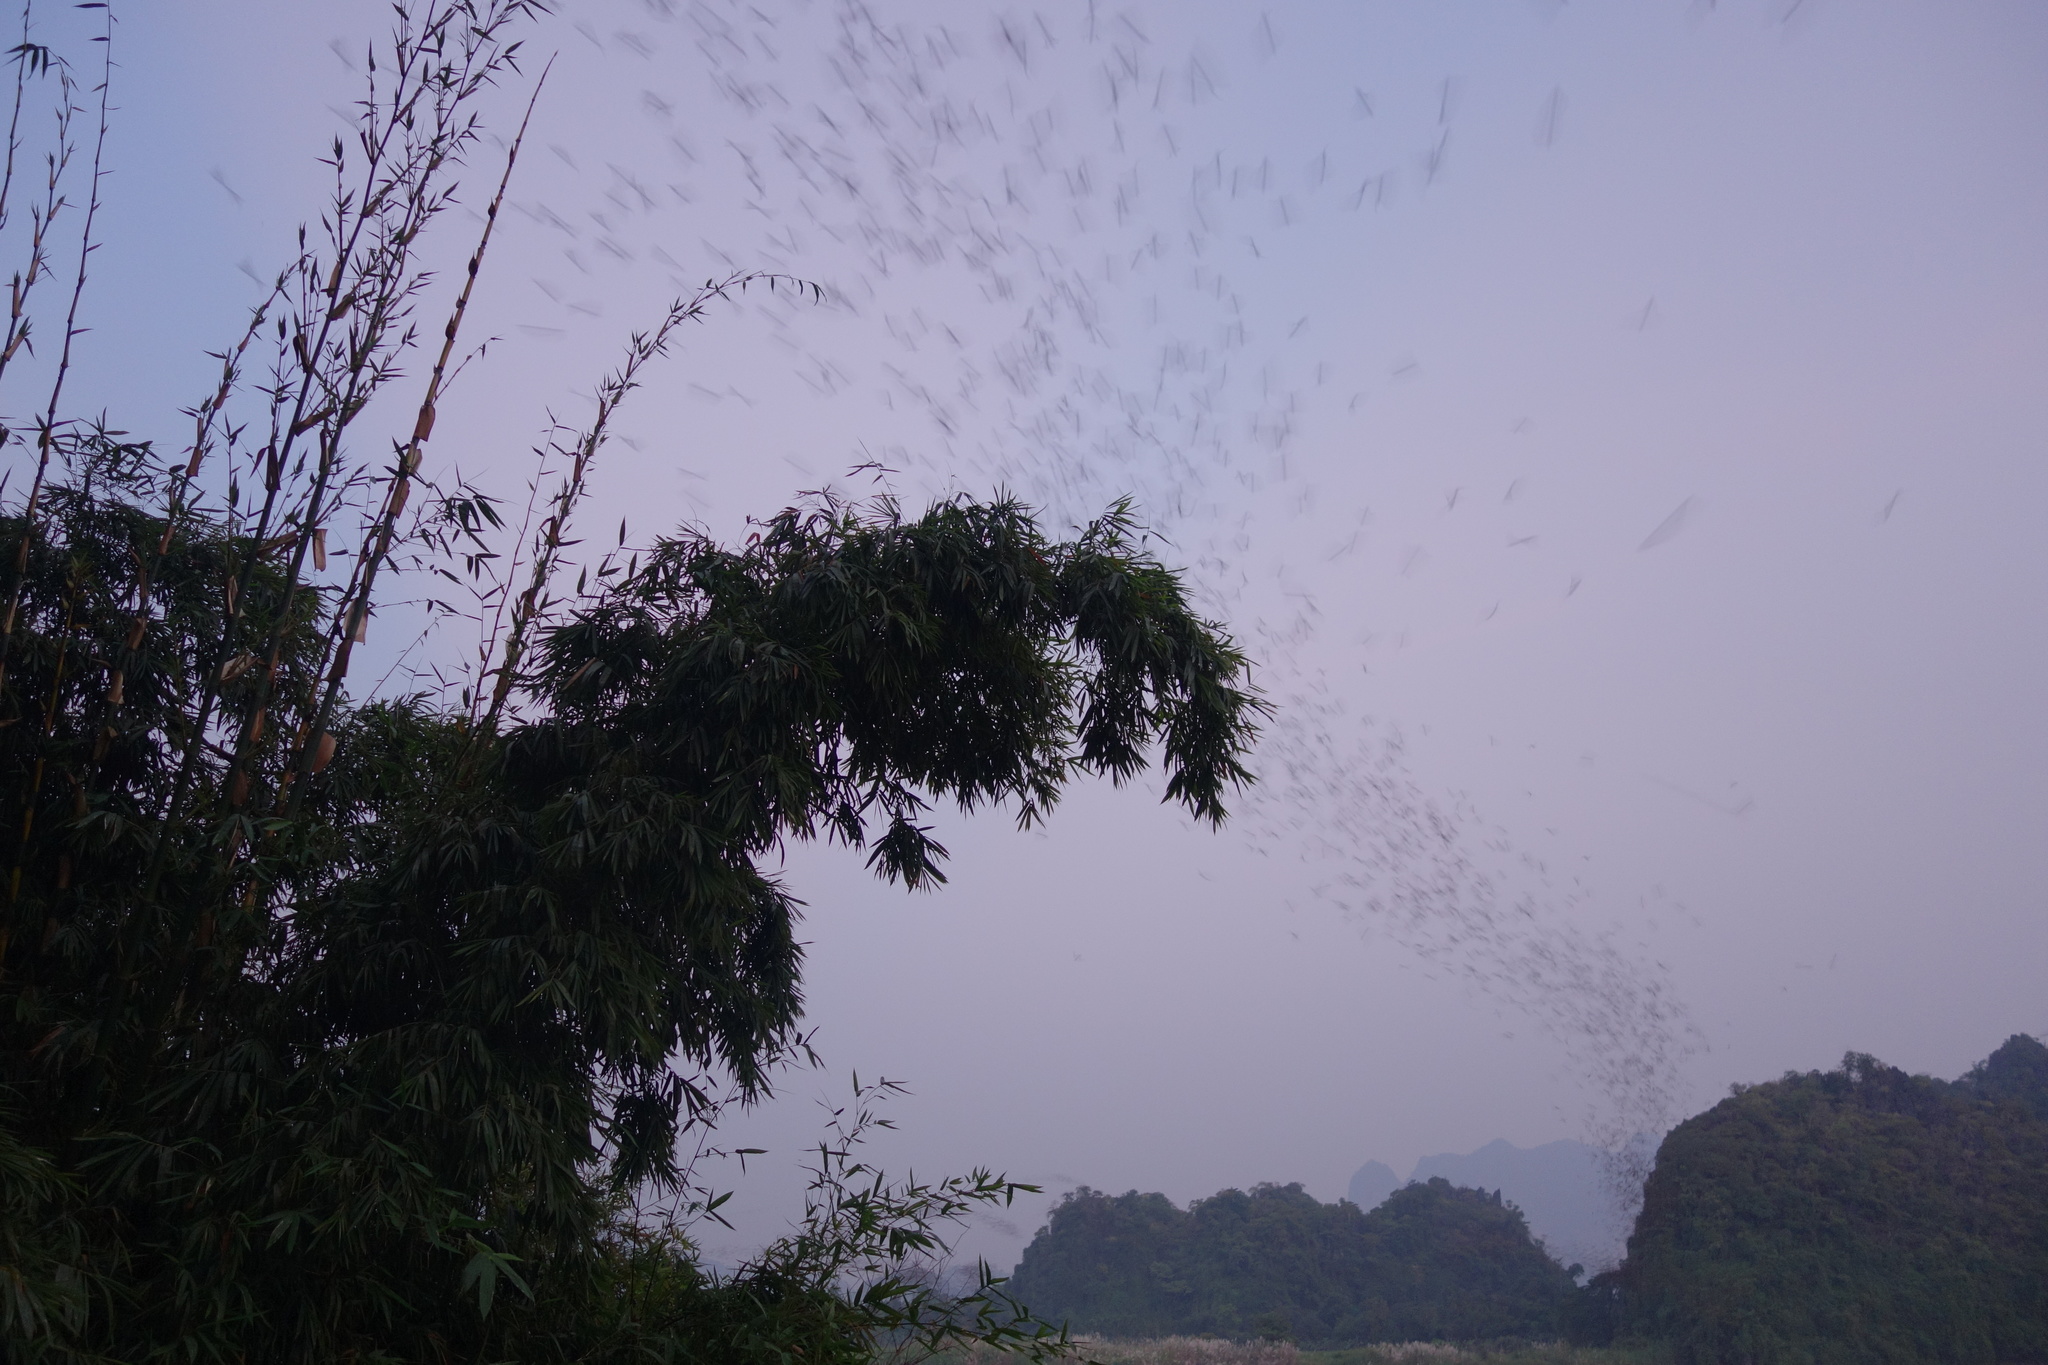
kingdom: Animalia
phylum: Chordata
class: Mammalia
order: Chiroptera
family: Molossidae
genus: Mops
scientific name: Mops
